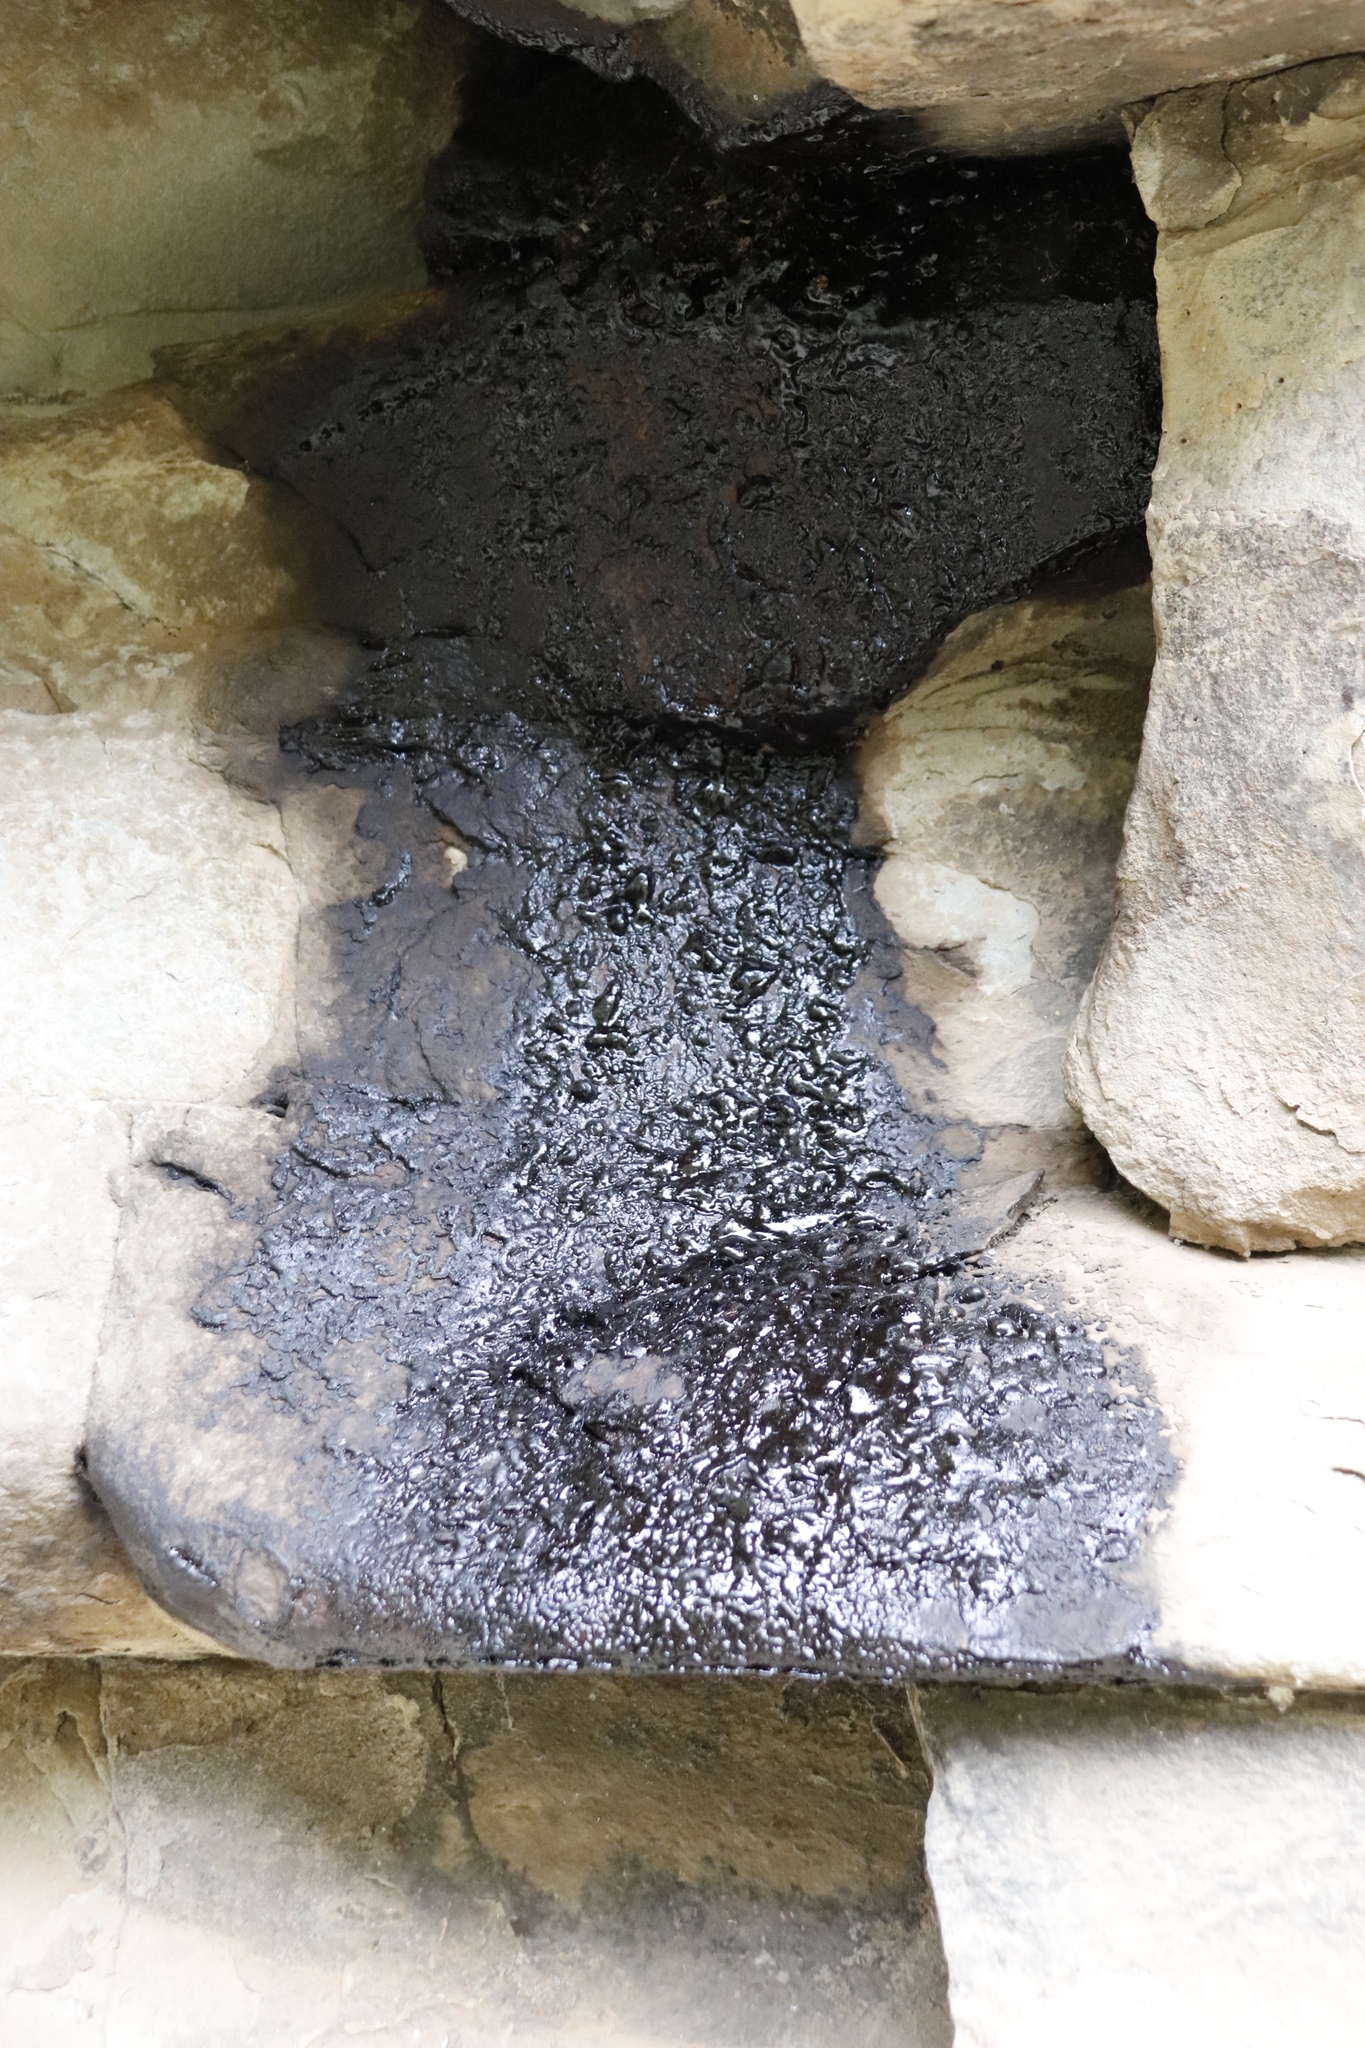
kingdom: Animalia
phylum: Chordata
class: Mammalia
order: Hyracoidea
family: Procaviidae
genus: Procavia
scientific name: Procavia capensis
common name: Rock hyrax
